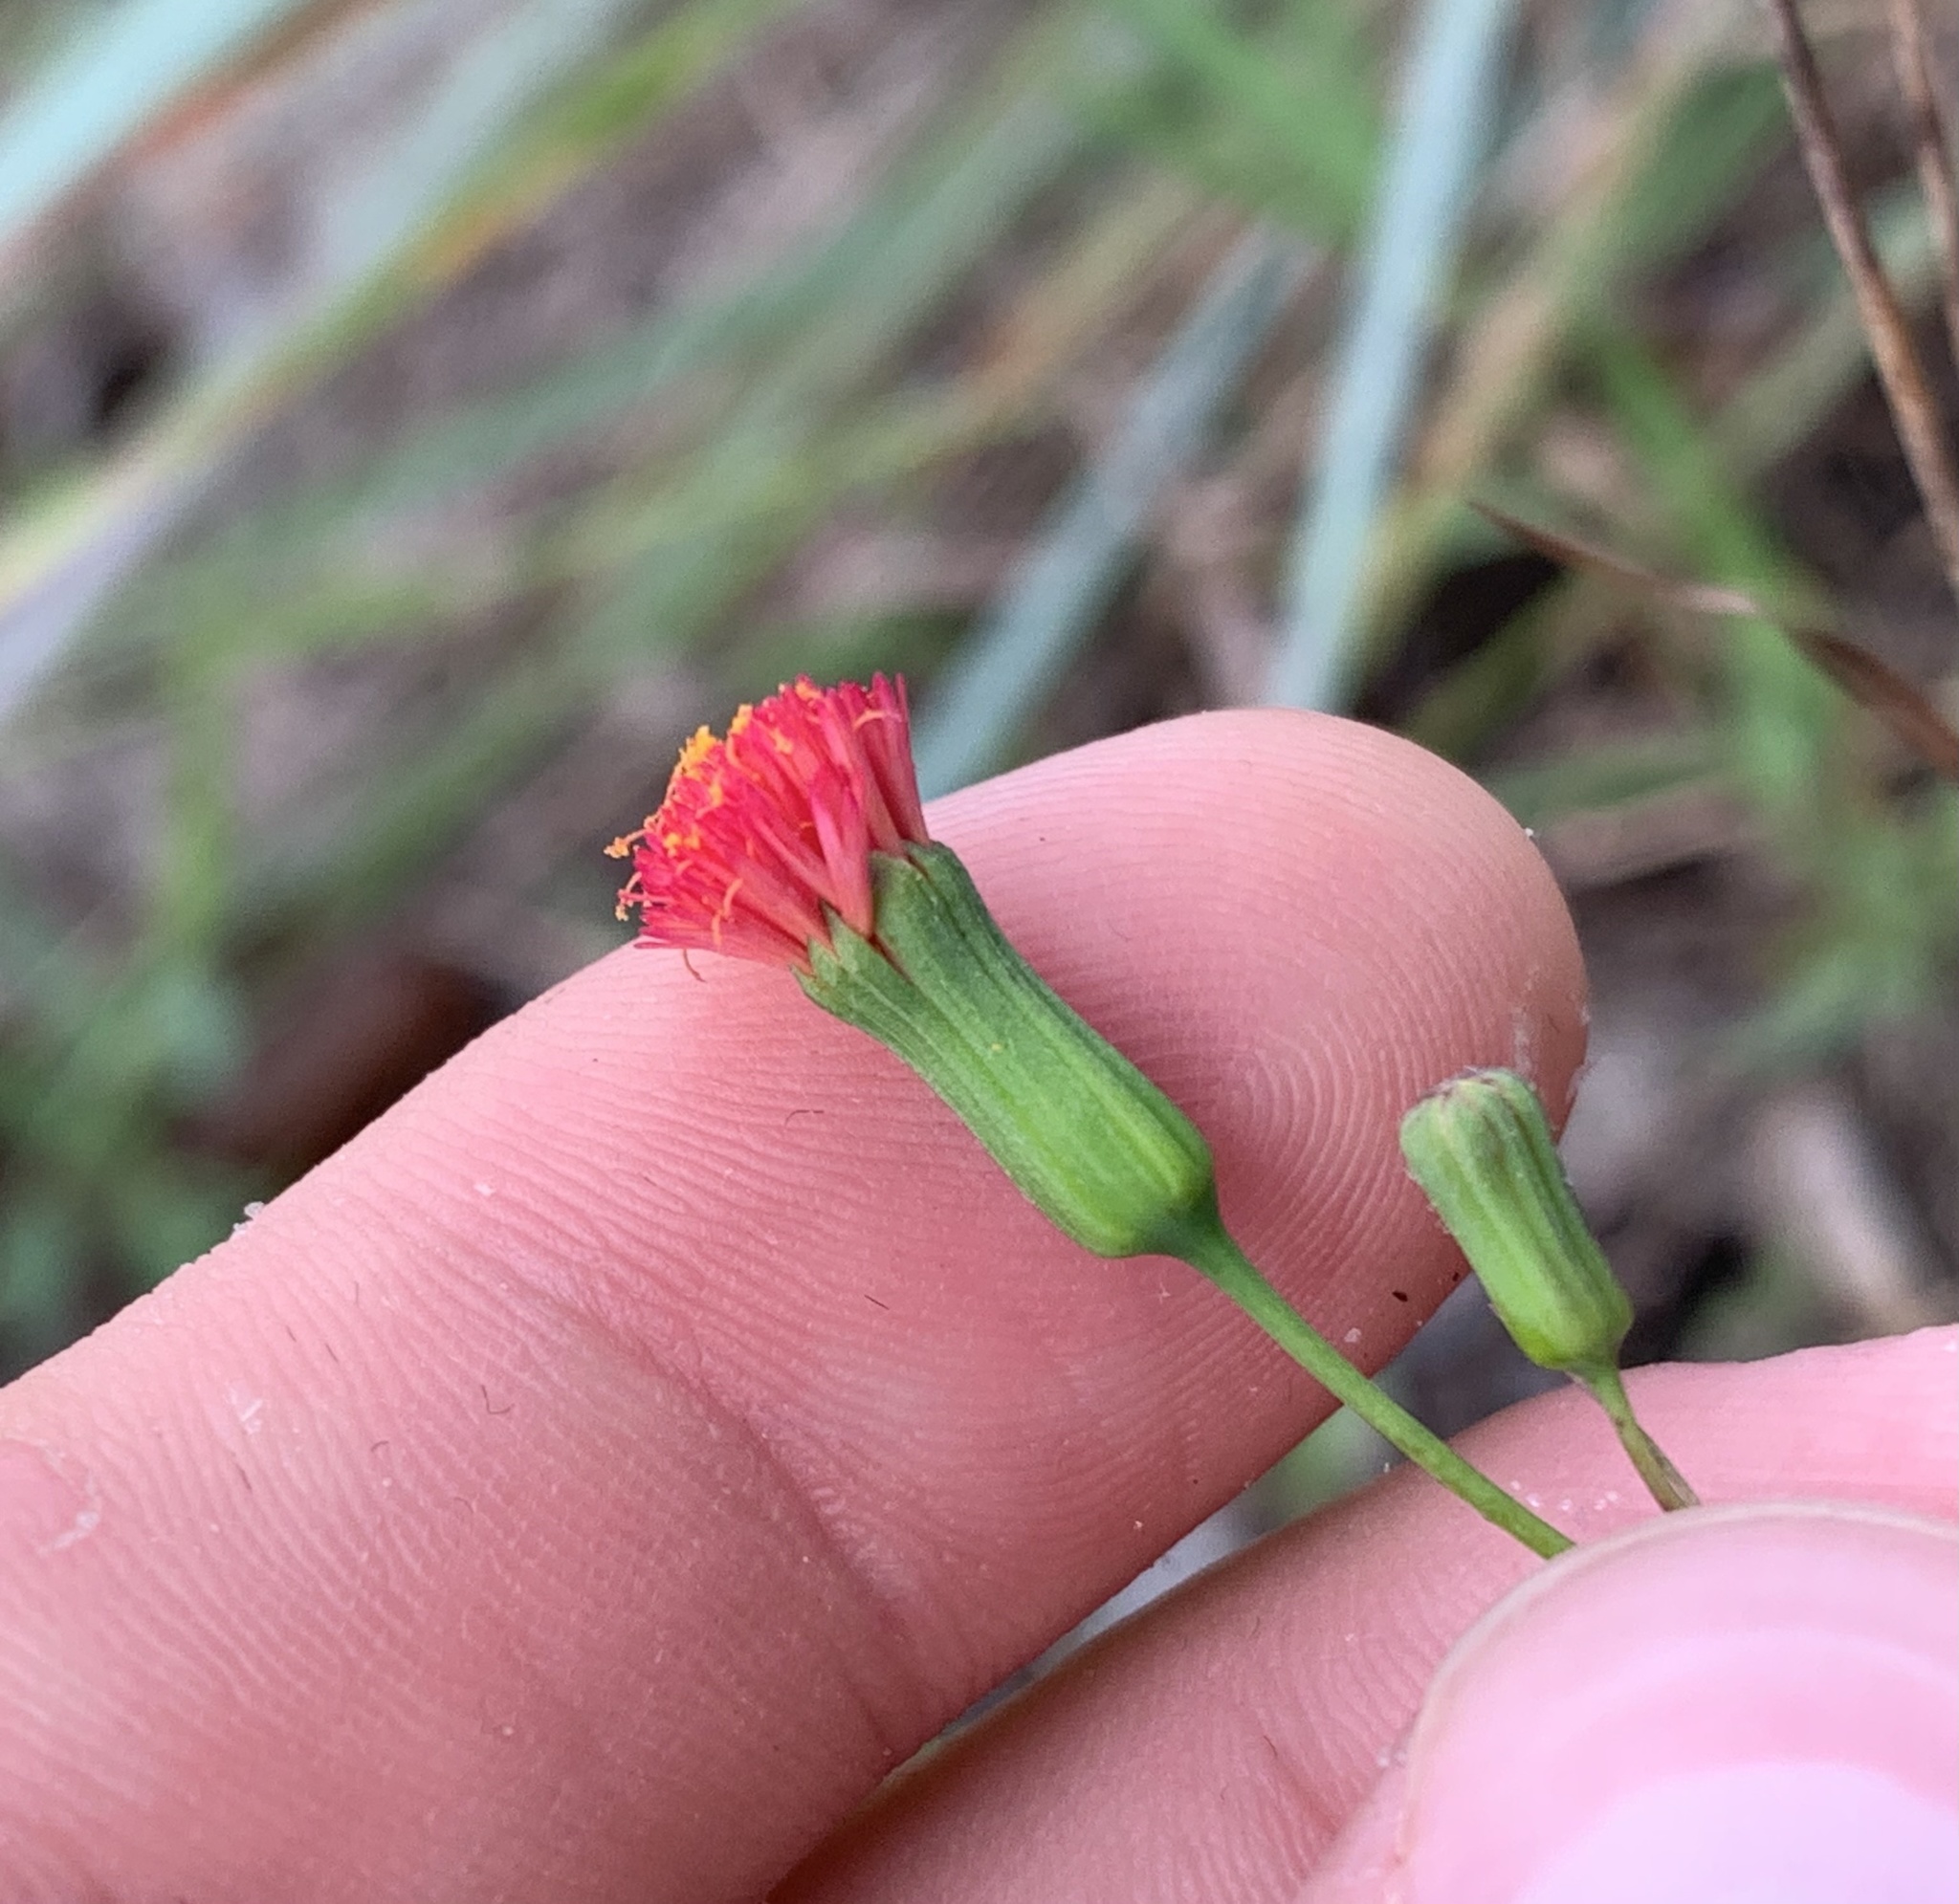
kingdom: Plantae
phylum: Tracheophyta
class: Magnoliopsida
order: Asterales
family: Asteraceae
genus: Emilia
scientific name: Emilia fosbergii
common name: Florida tasselflower
